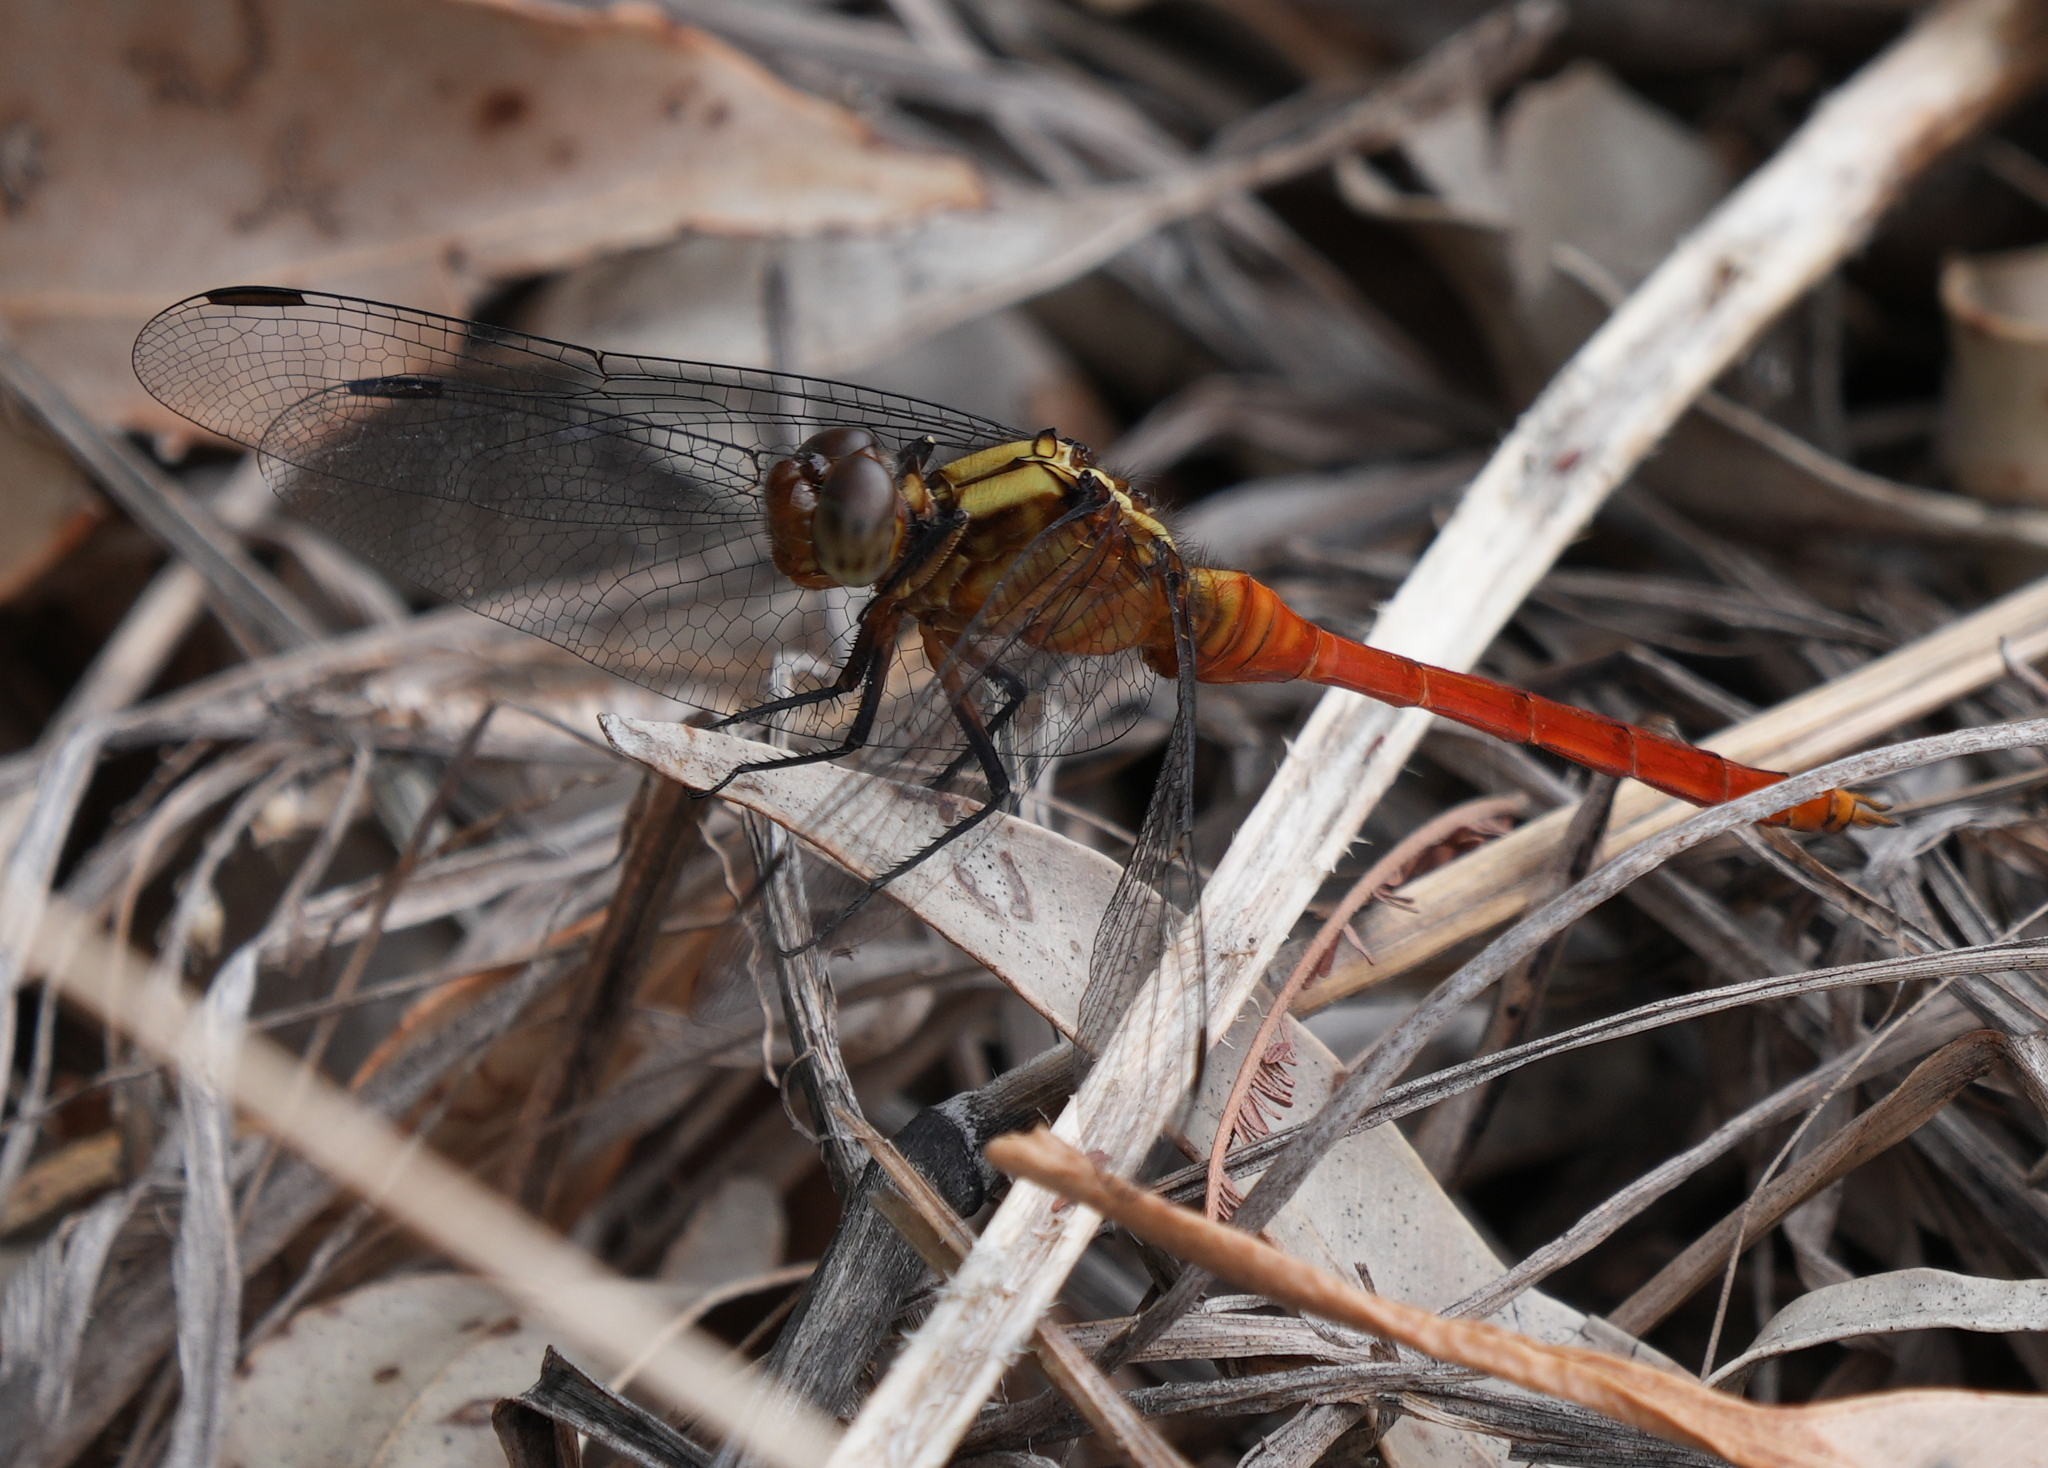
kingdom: Animalia
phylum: Arthropoda
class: Insecta
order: Odonata
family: Libellulidae
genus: Orthetrum
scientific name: Orthetrum villosovittatum
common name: Firery skimmer
